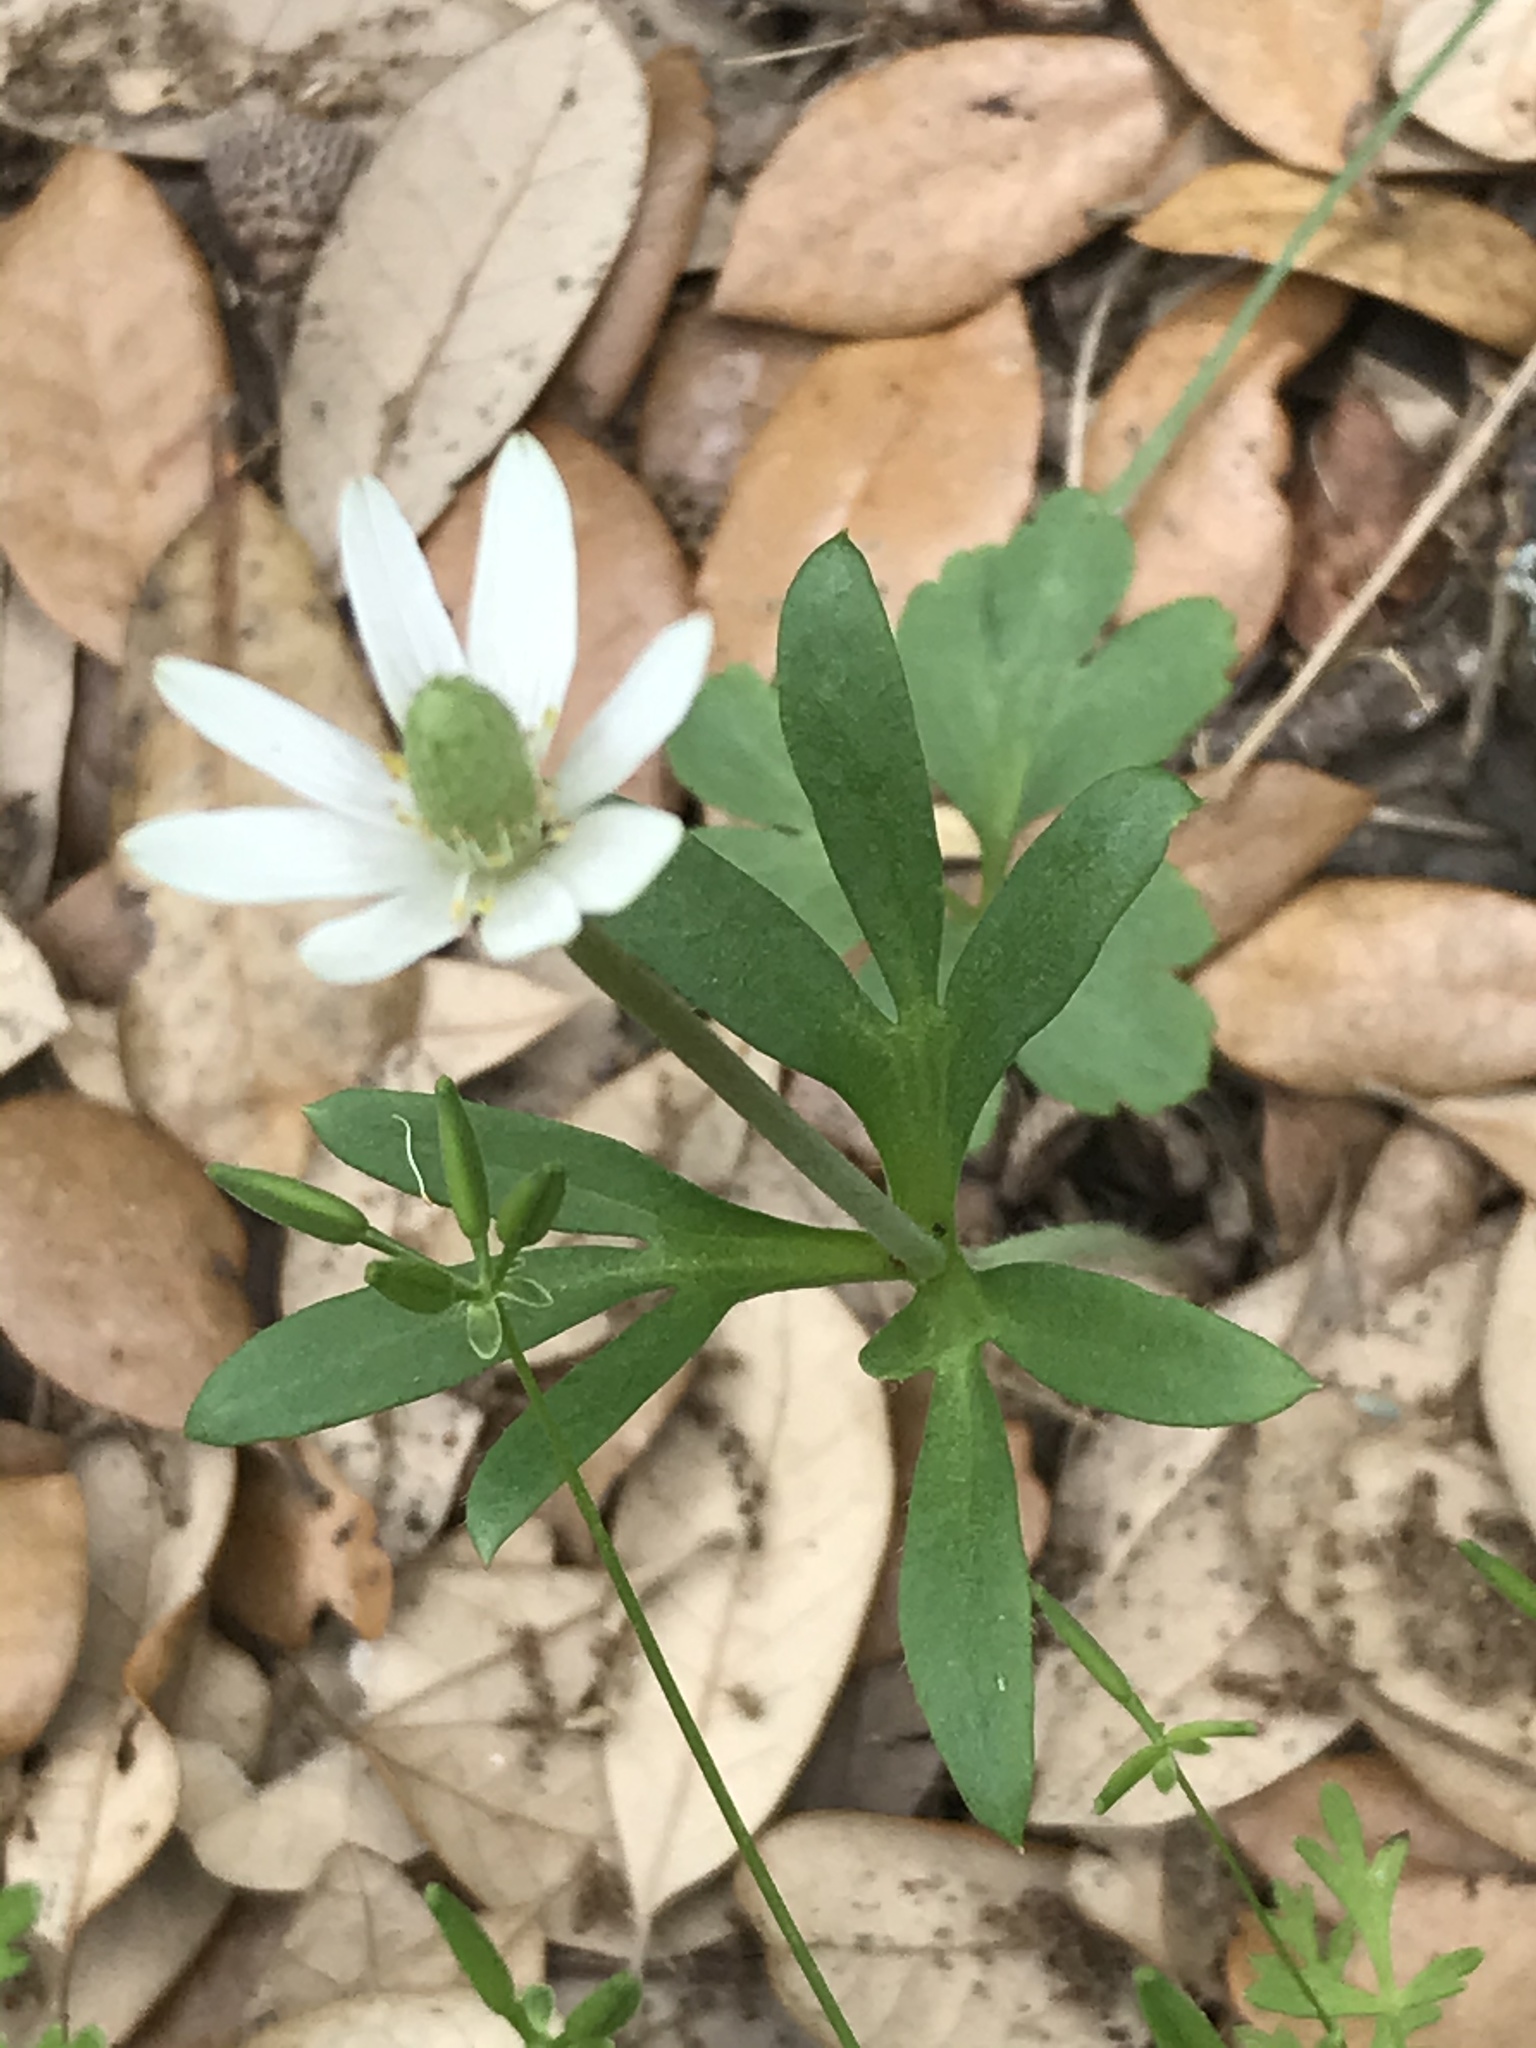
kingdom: Plantae
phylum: Tracheophyta
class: Magnoliopsida
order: Ranunculales
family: Ranunculaceae
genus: Anemone
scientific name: Anemone berlandieri
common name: Ten-petal anemone
